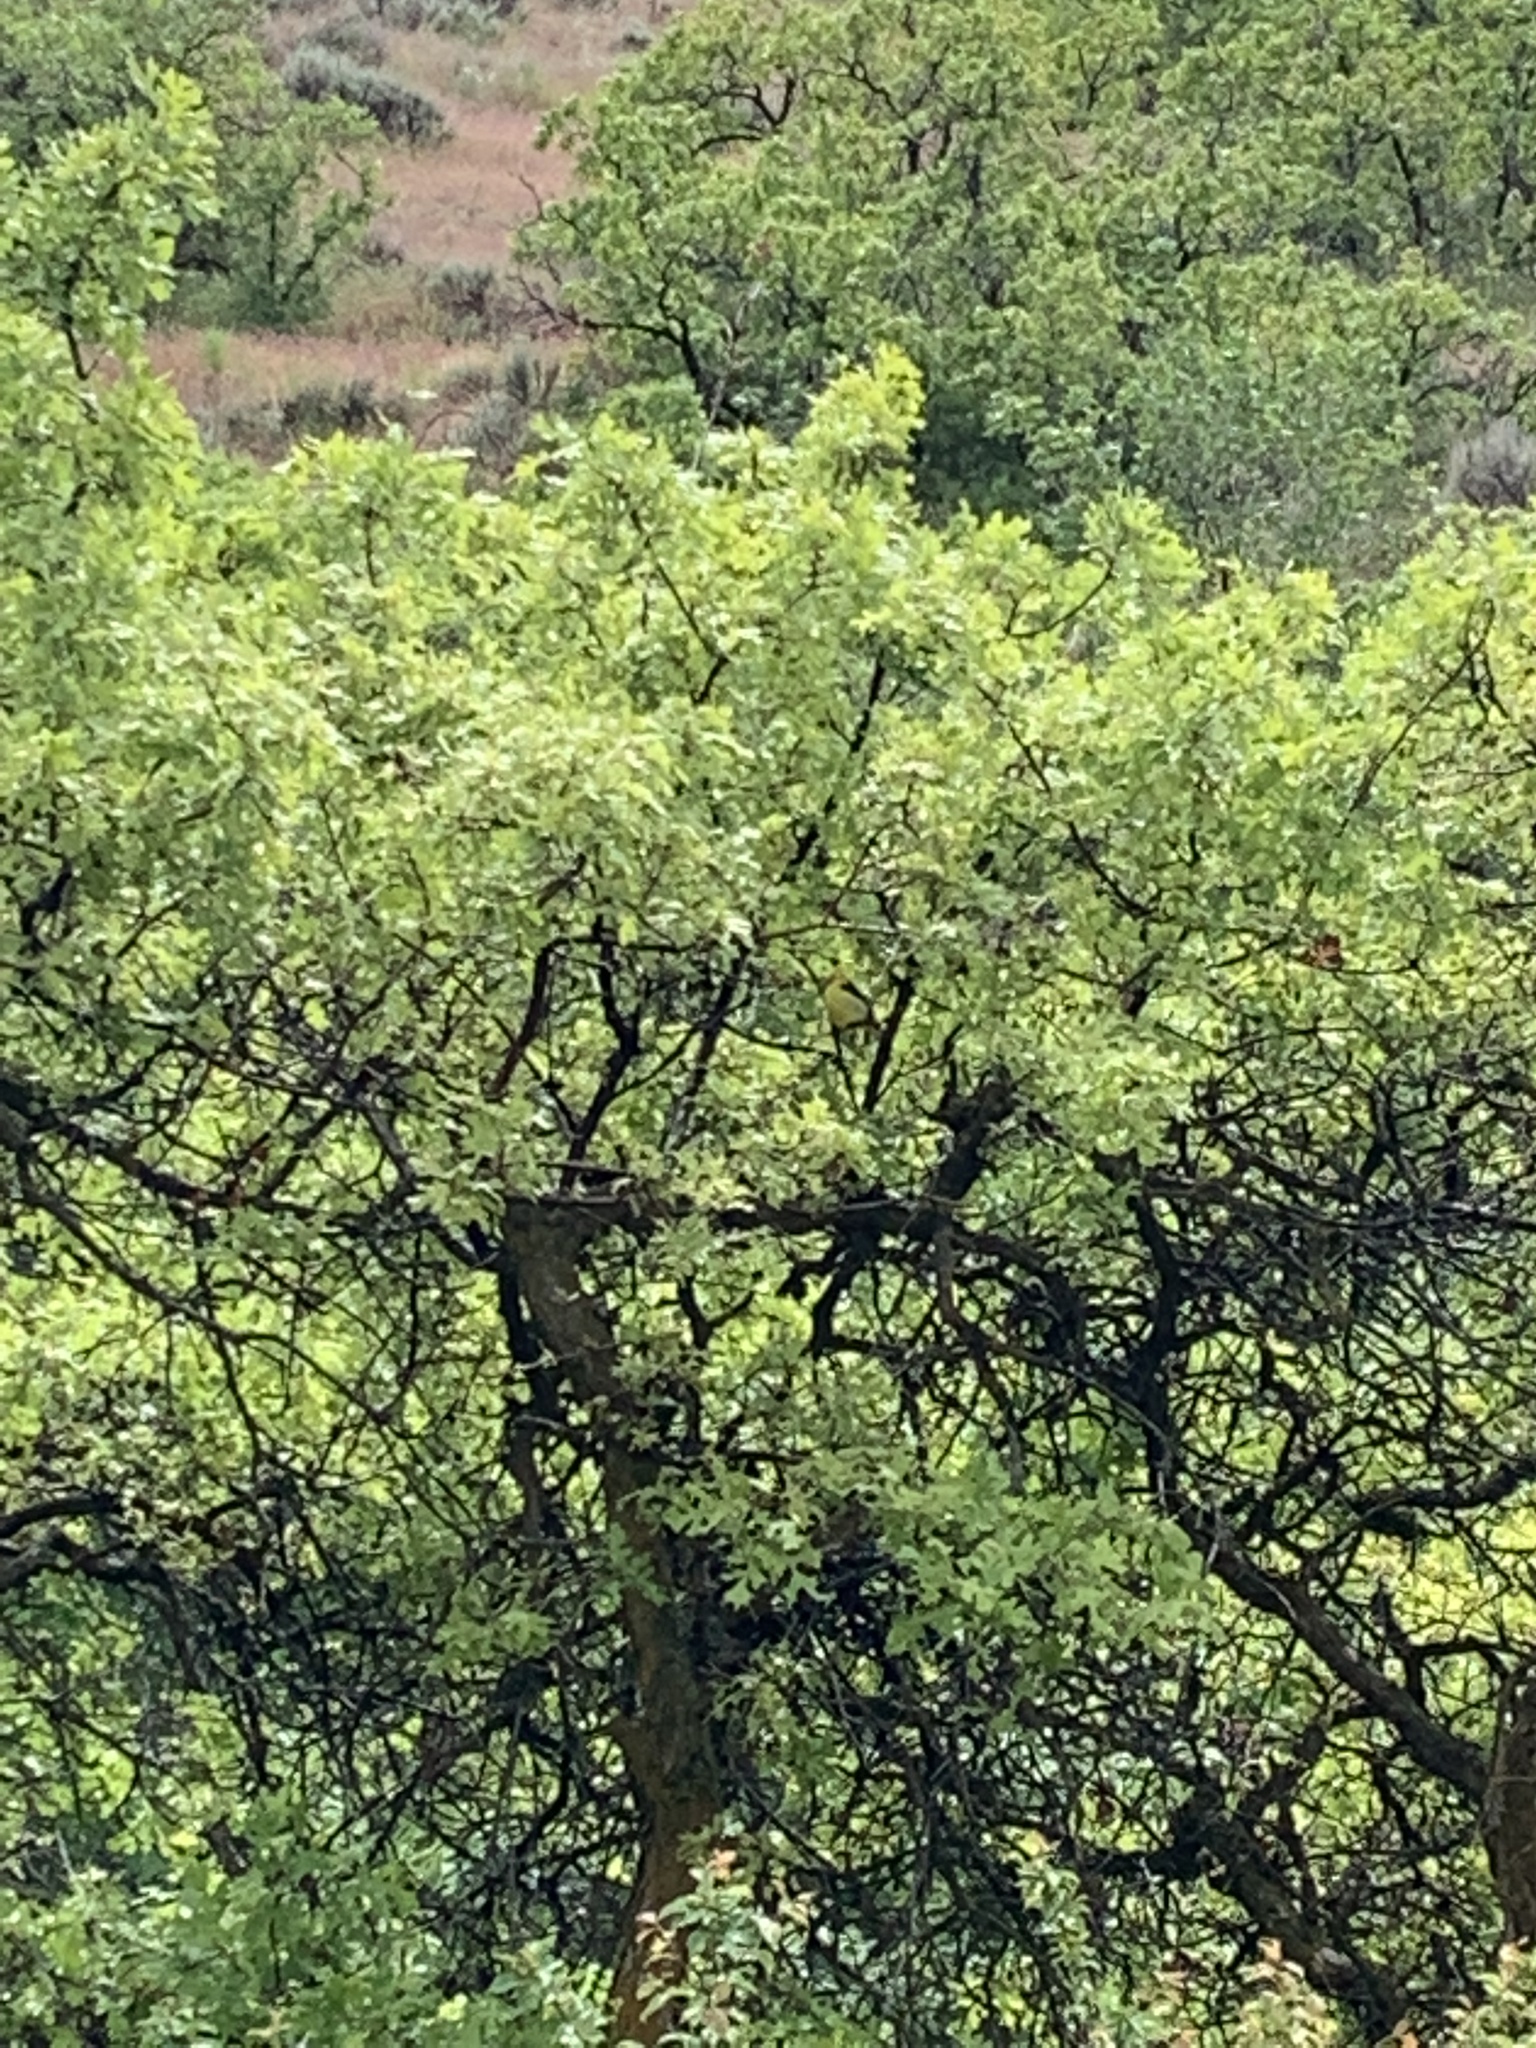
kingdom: Animalia
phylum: Chordata
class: Aves
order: Passeriformes
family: Cardinalidae
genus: Piranga
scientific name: Piranga ludoviciana
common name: Western tanager
